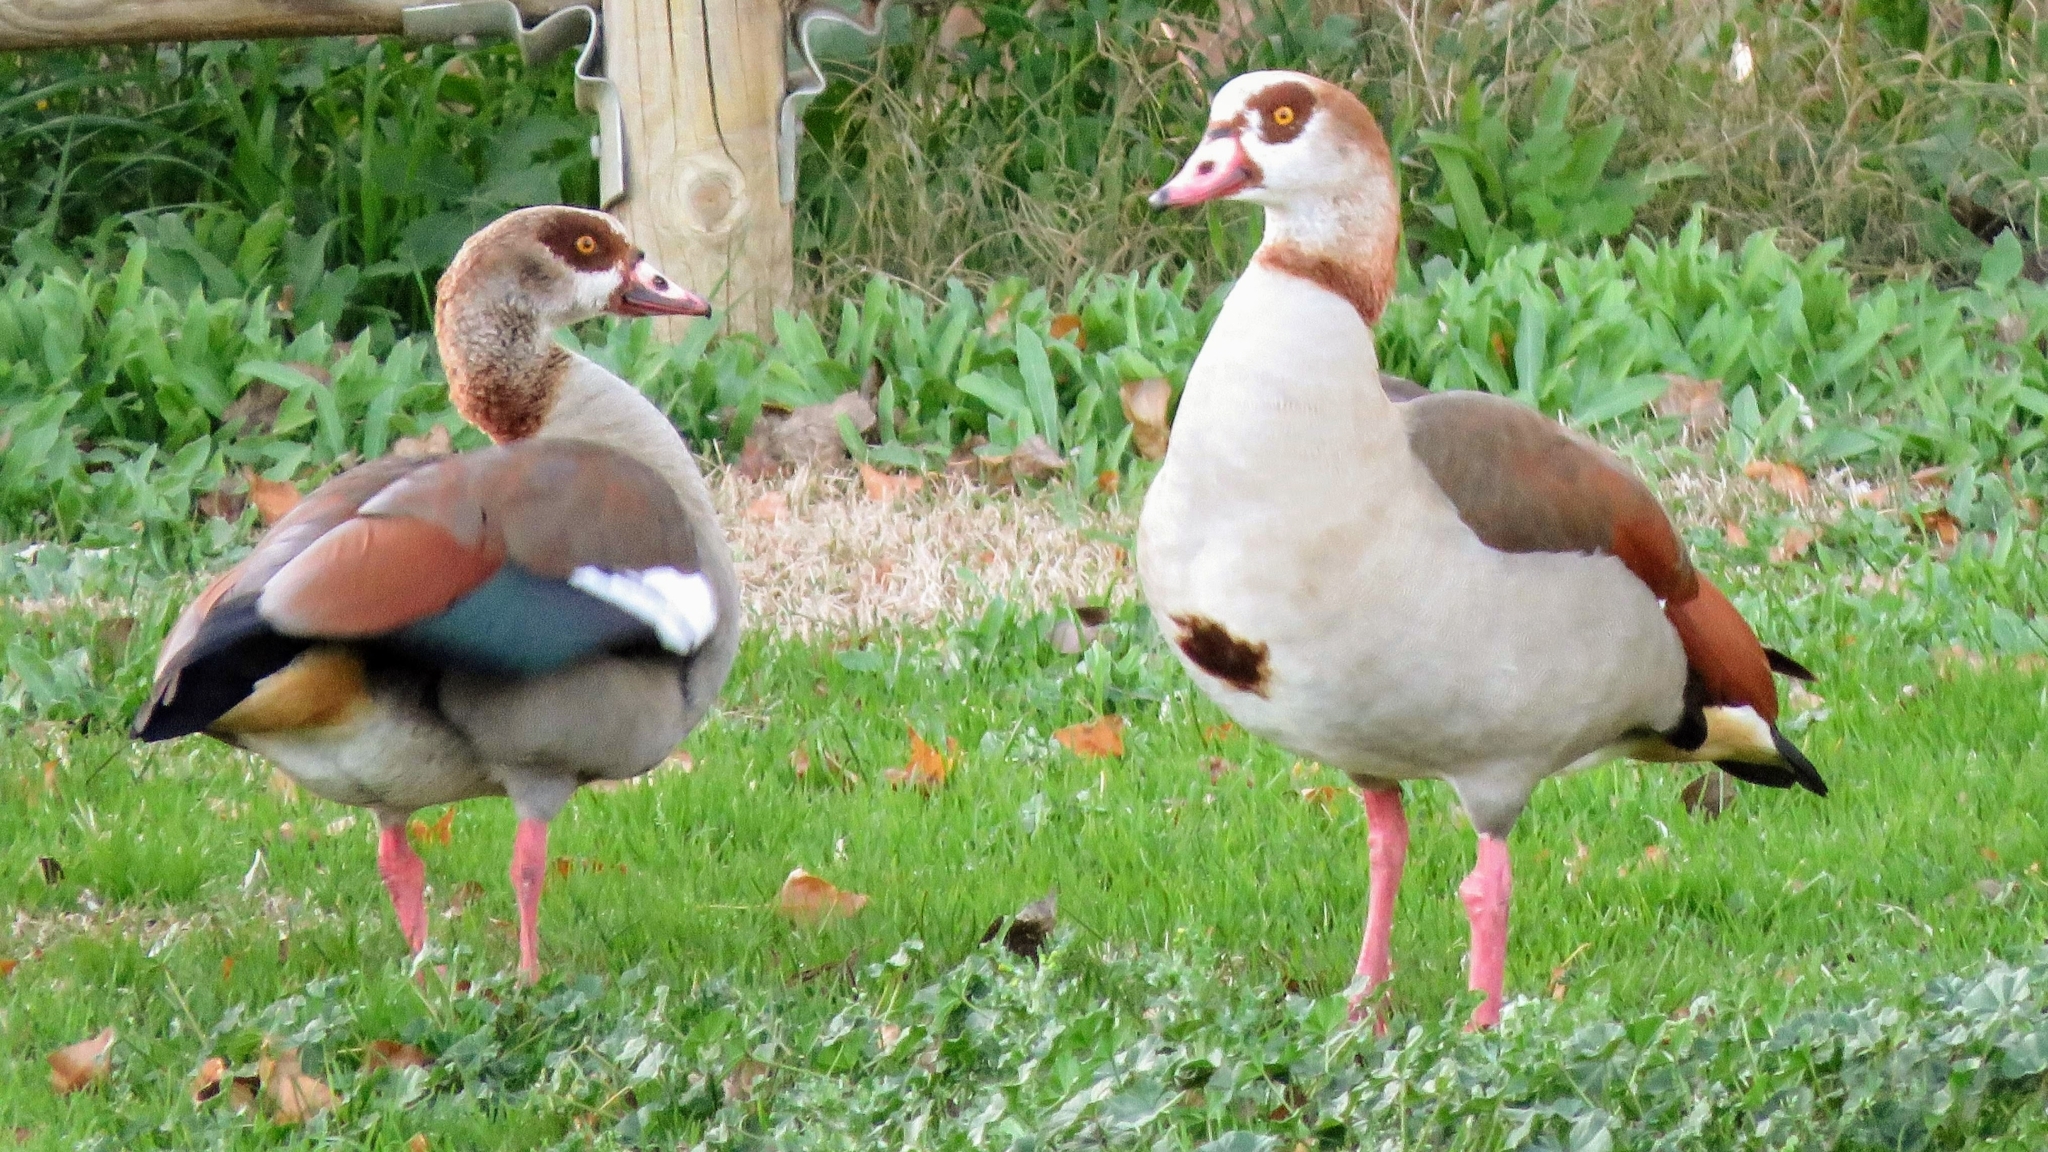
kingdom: Animalia
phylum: Chordata
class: Aves
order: Anseriformes
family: Anatidae
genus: Alopochen
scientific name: Alopochen aegyptiaca
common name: Egyptian goose
